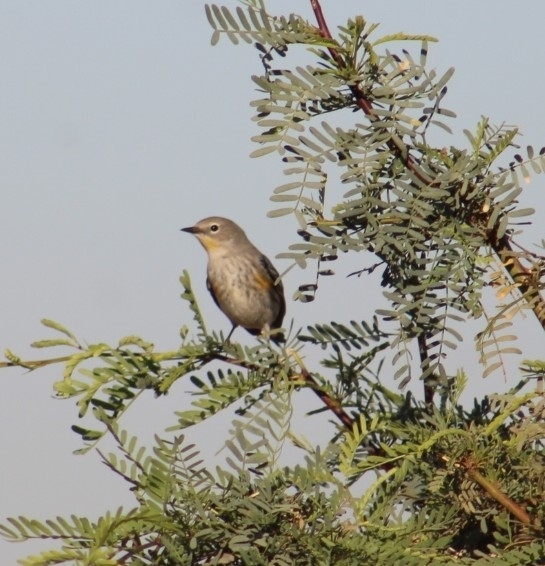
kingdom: Animalia
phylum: Chordata
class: Aves
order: Passeriformes
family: Parulidae
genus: Setophaga
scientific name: Setophaga coronata
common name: Myrtle warbler
